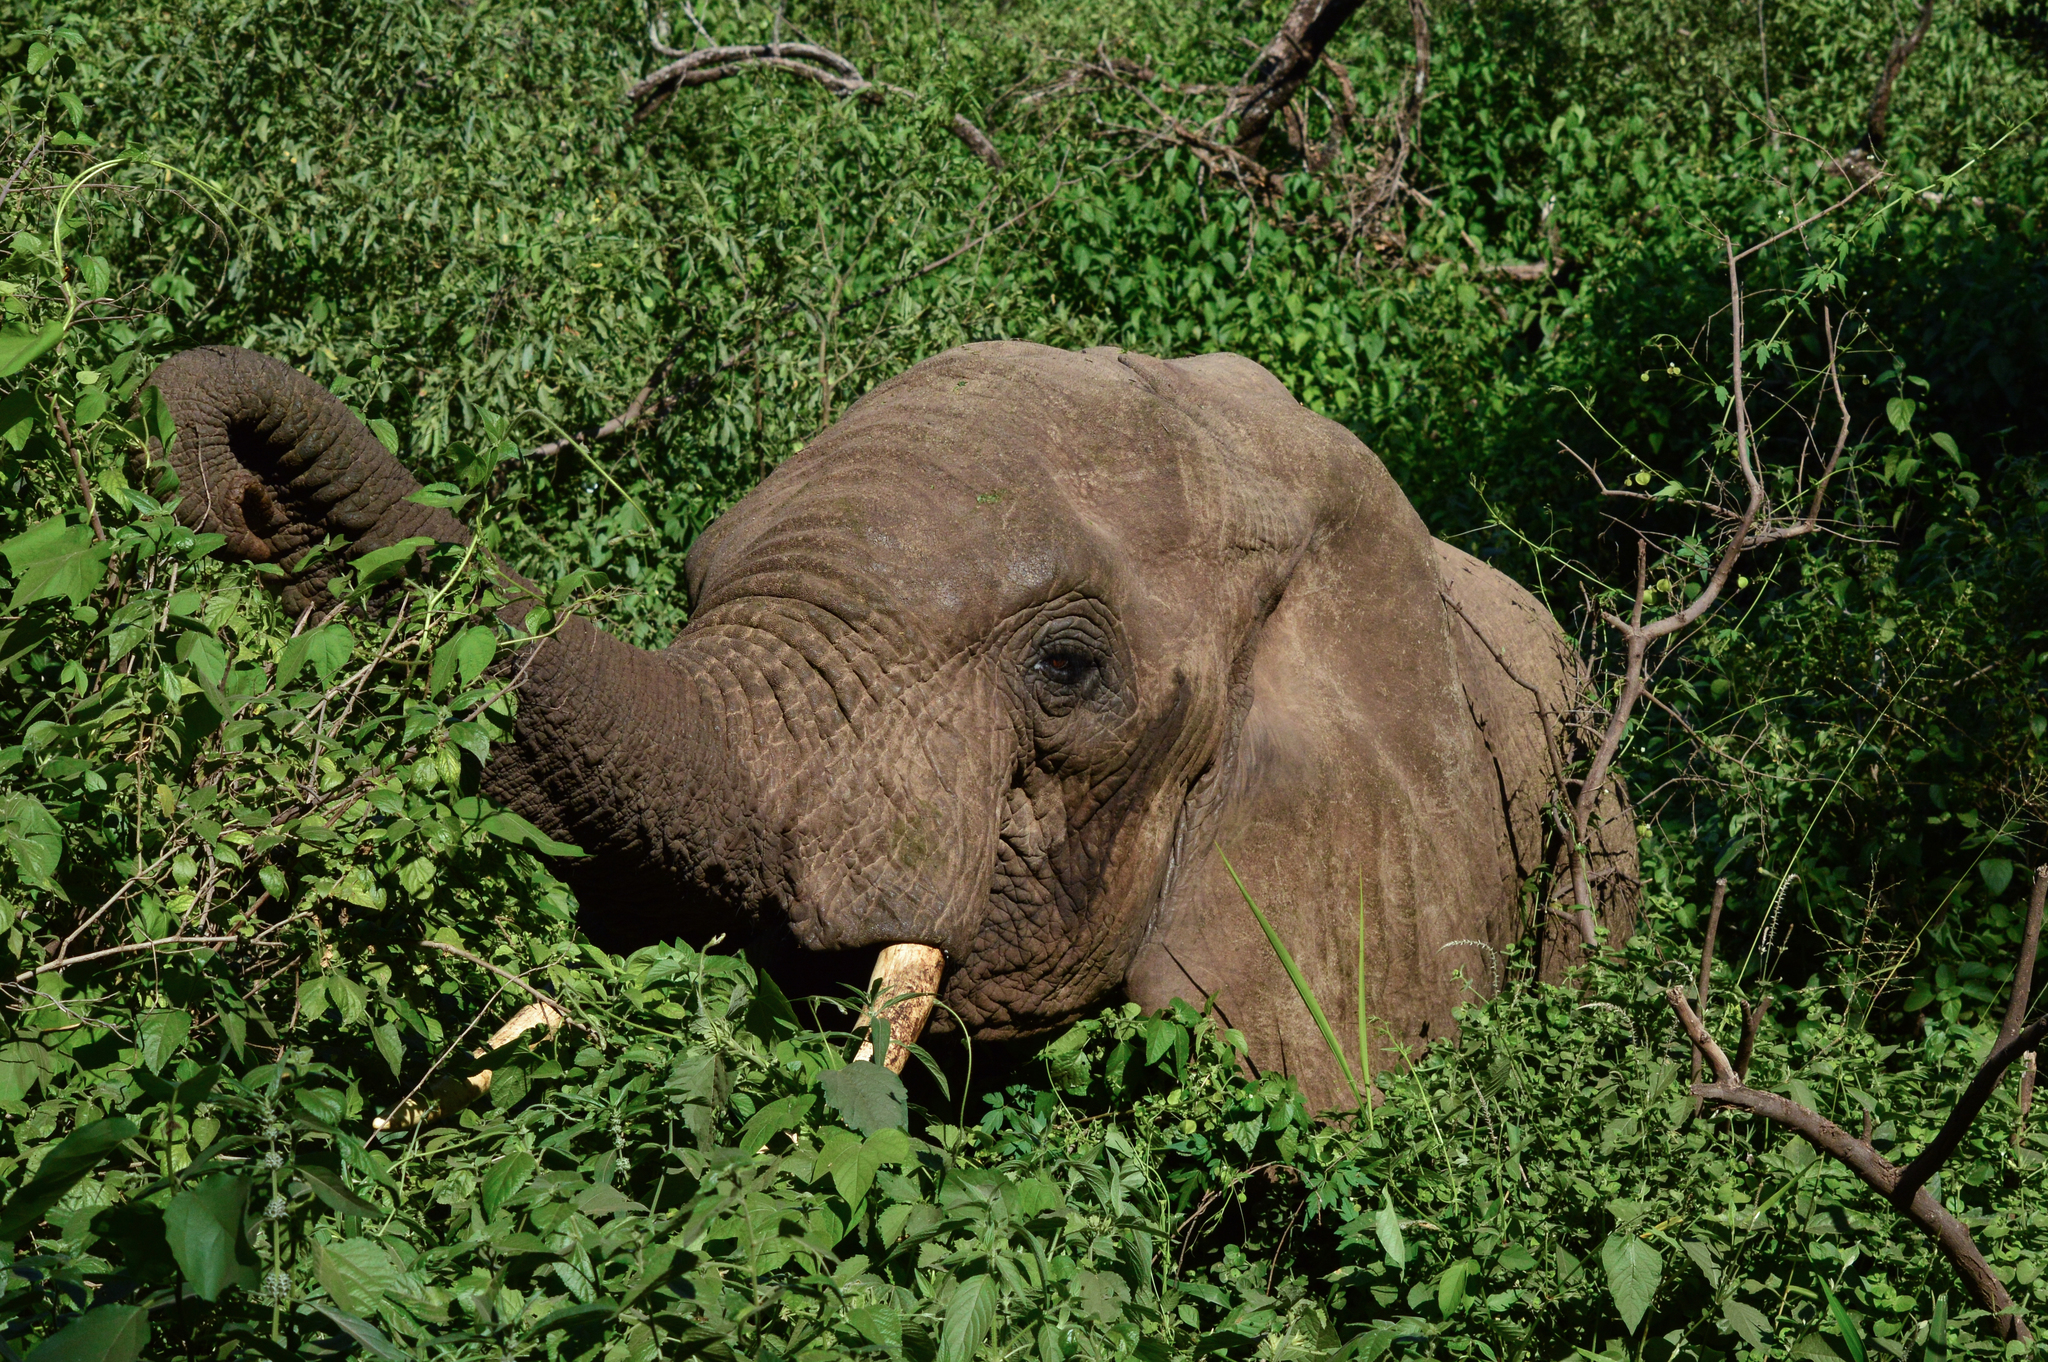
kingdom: Animalia
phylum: Chordata
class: Mammalia
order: Proboscidea
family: Elephantidae
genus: Loxodonta
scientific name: Loxodonta africana
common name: African elephant
